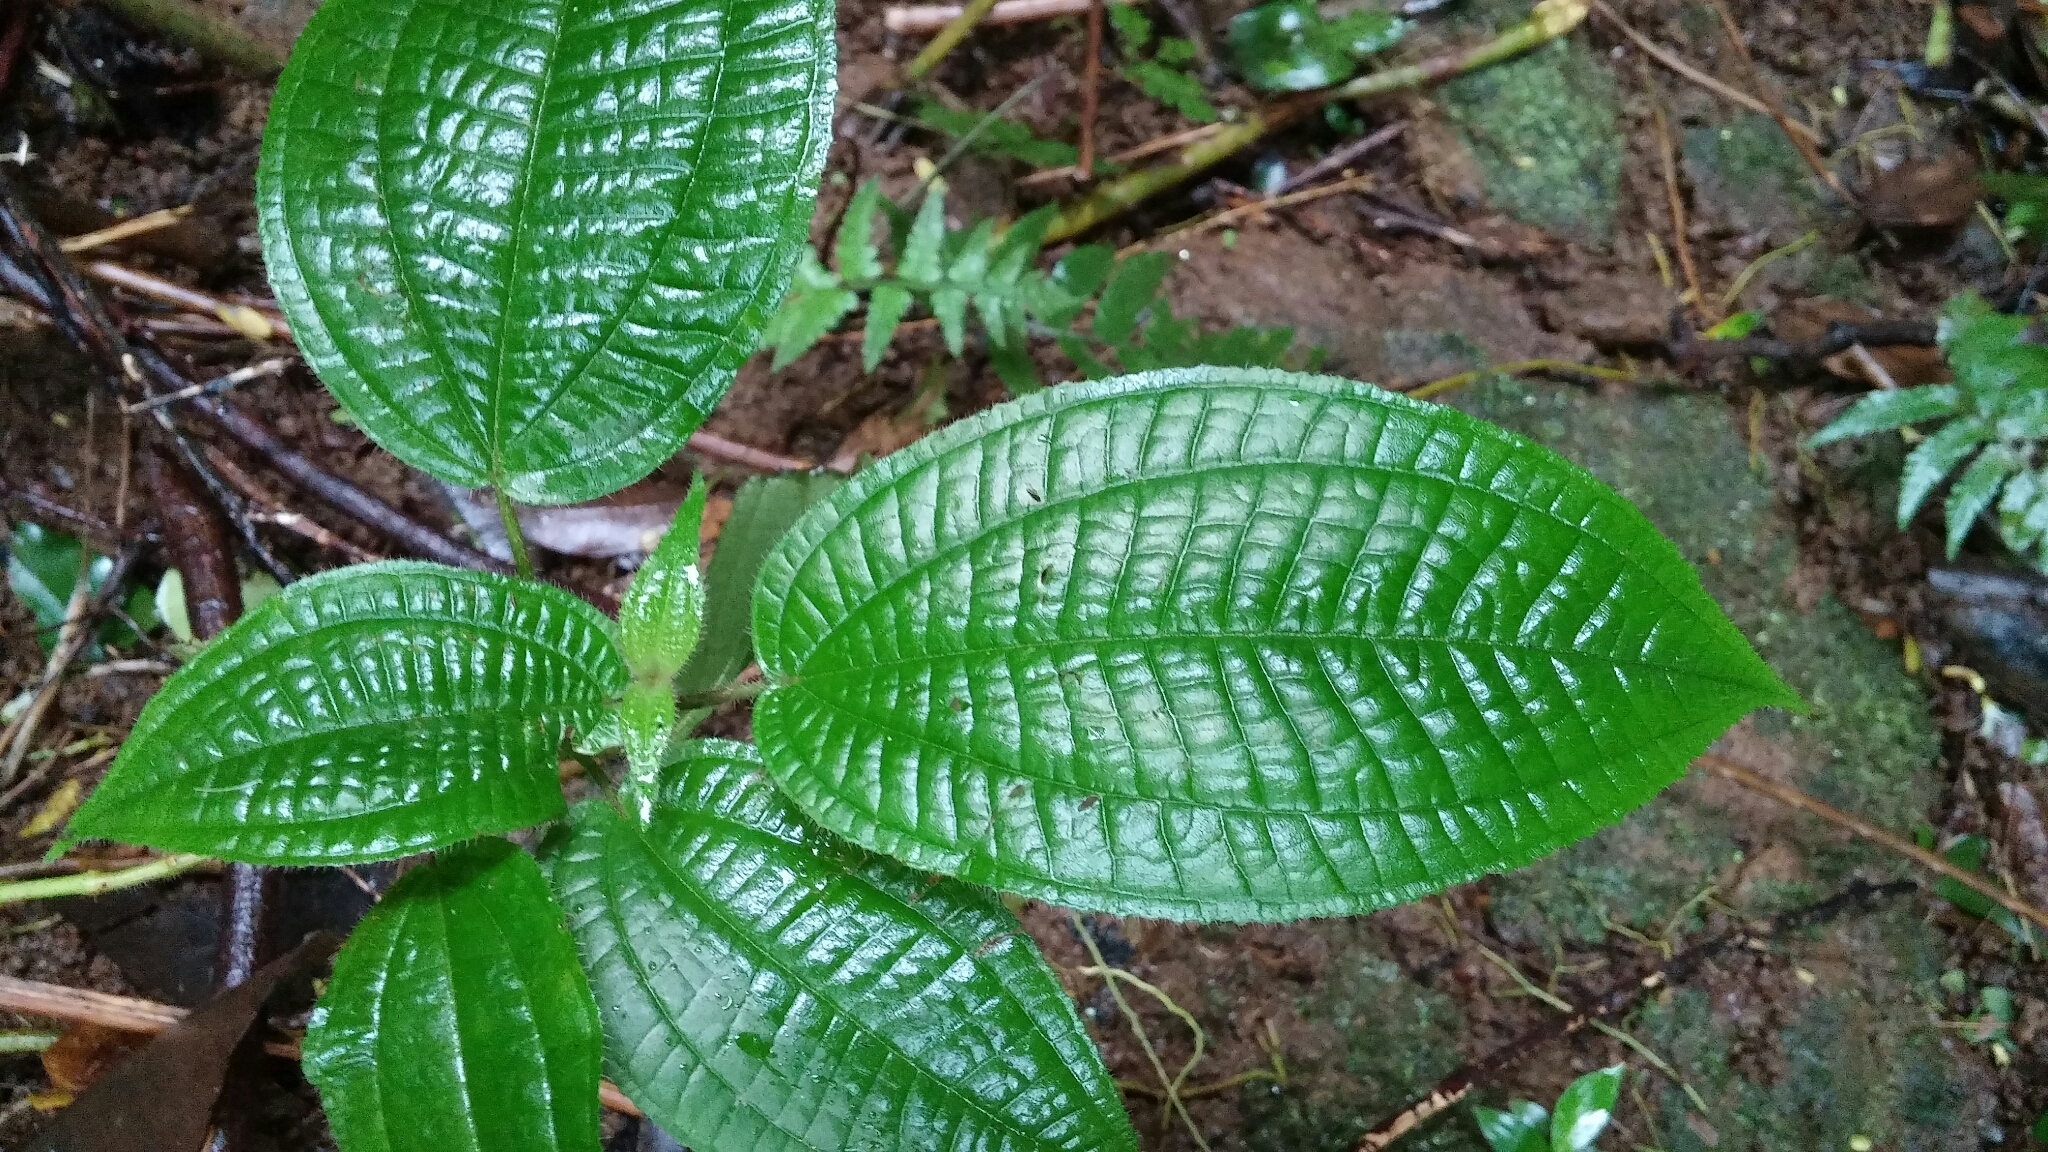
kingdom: Plantae
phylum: Tracheophyta
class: Magnoliopsida
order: Myrtales
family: Melastomataceae
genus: Miconia
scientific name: Miconia crenata
